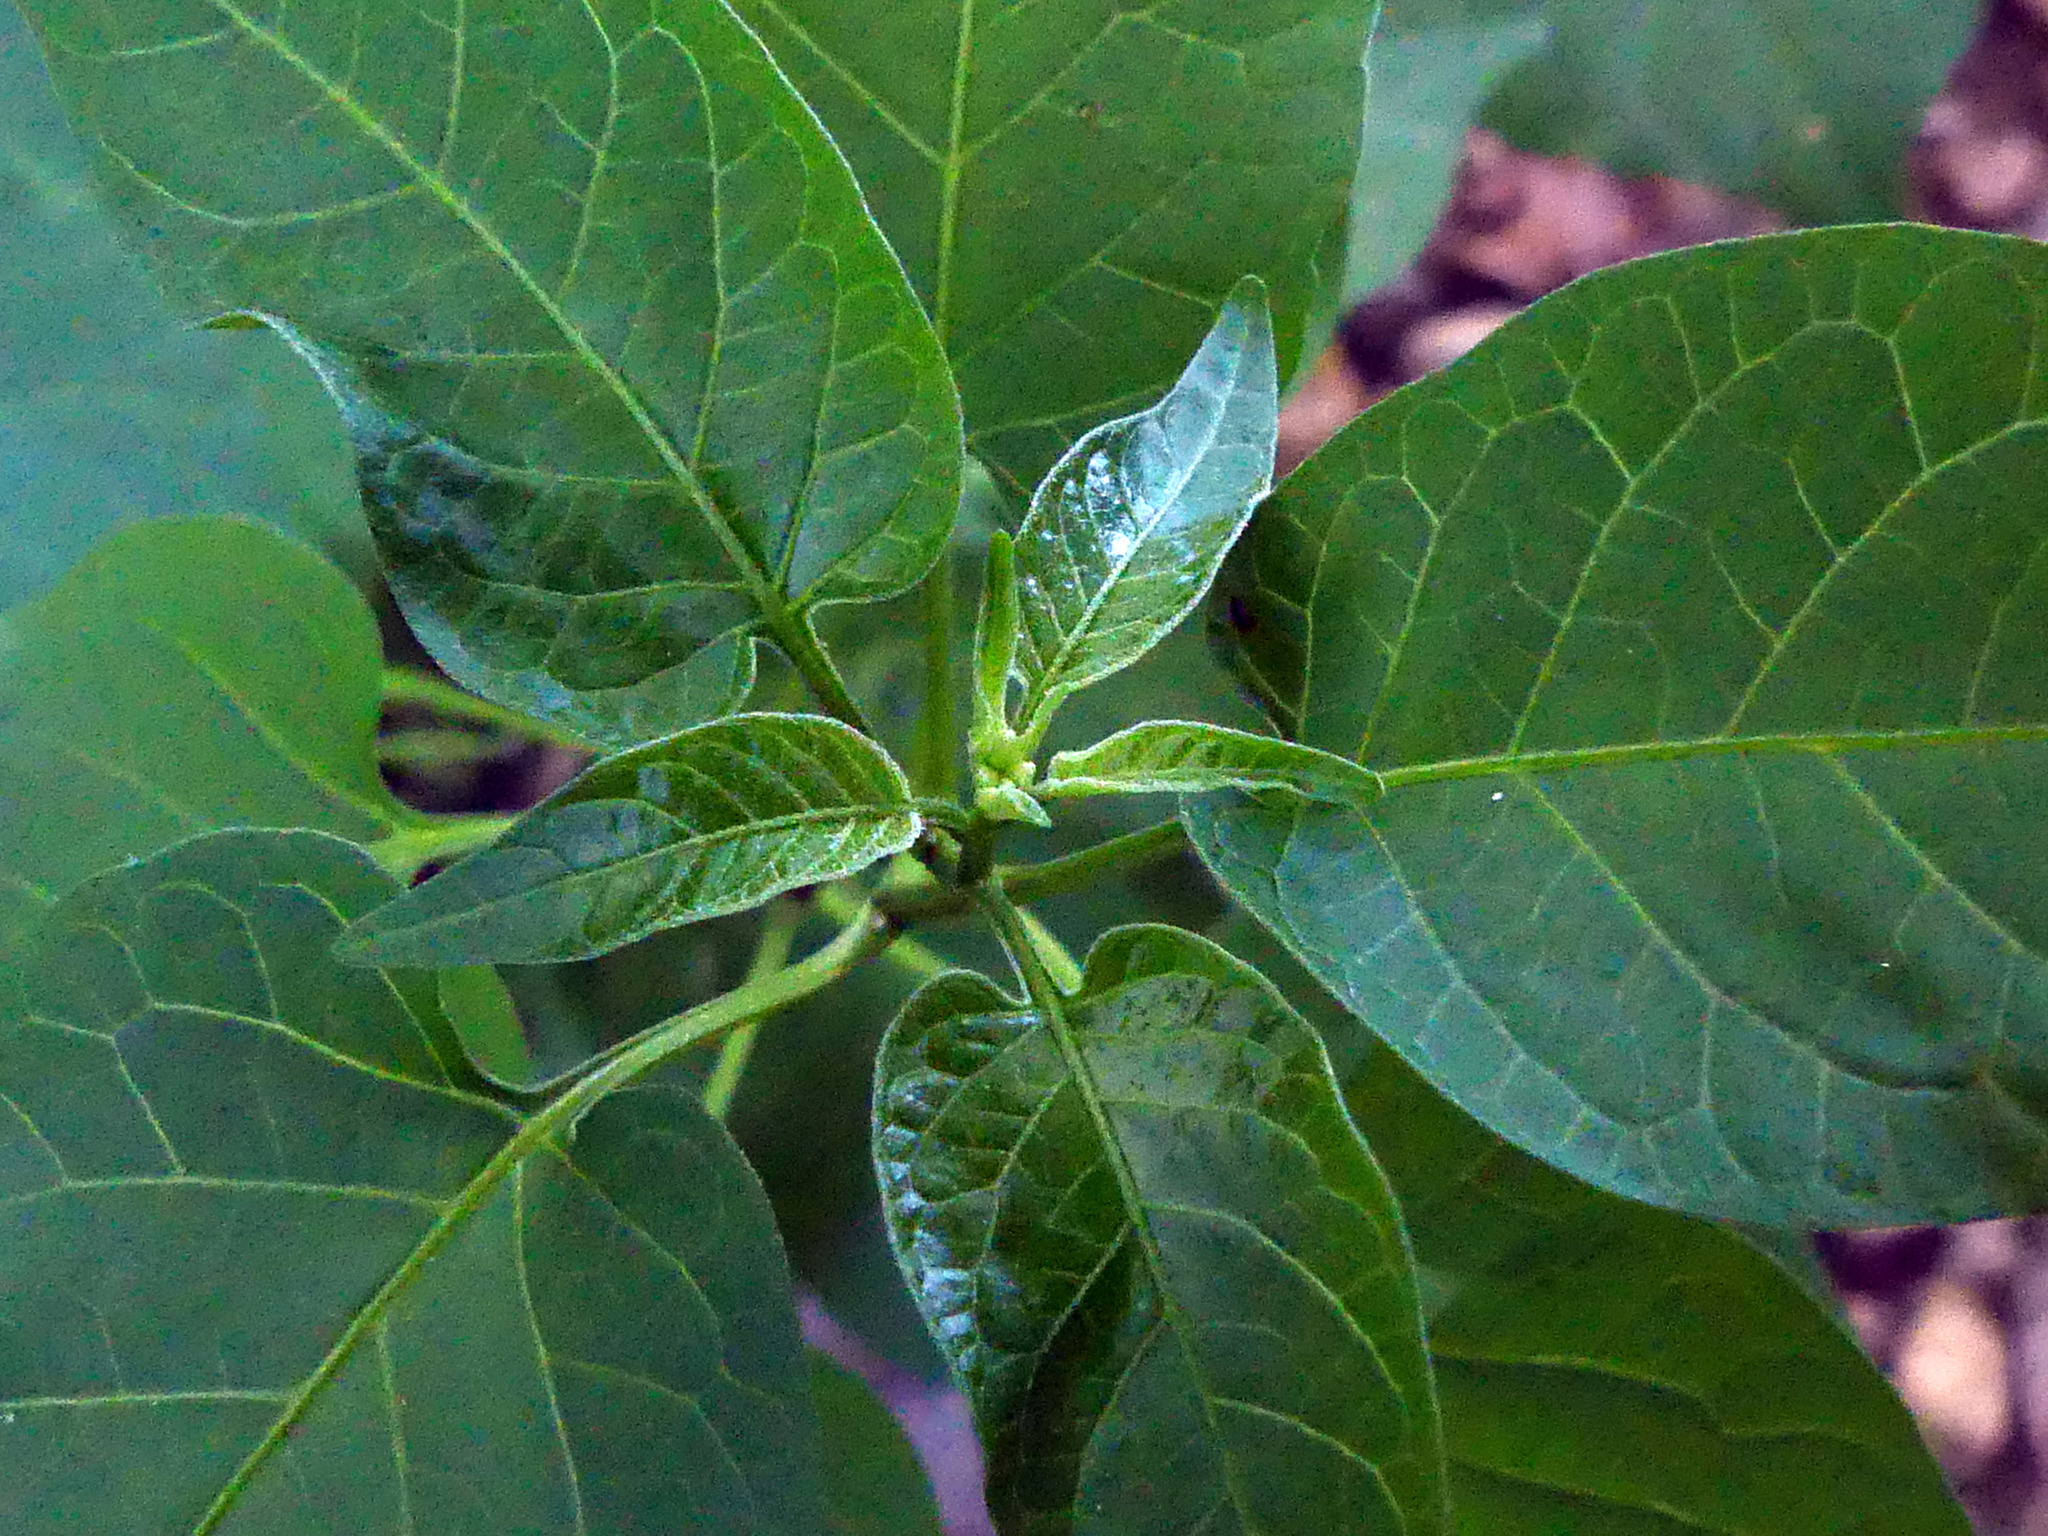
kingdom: Plantae
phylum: Tracheophyta
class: Magnoliopsida
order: Solanales
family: Solanaceae
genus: Solanum
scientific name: Solanum dulcamara
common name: Climbing nightshade
